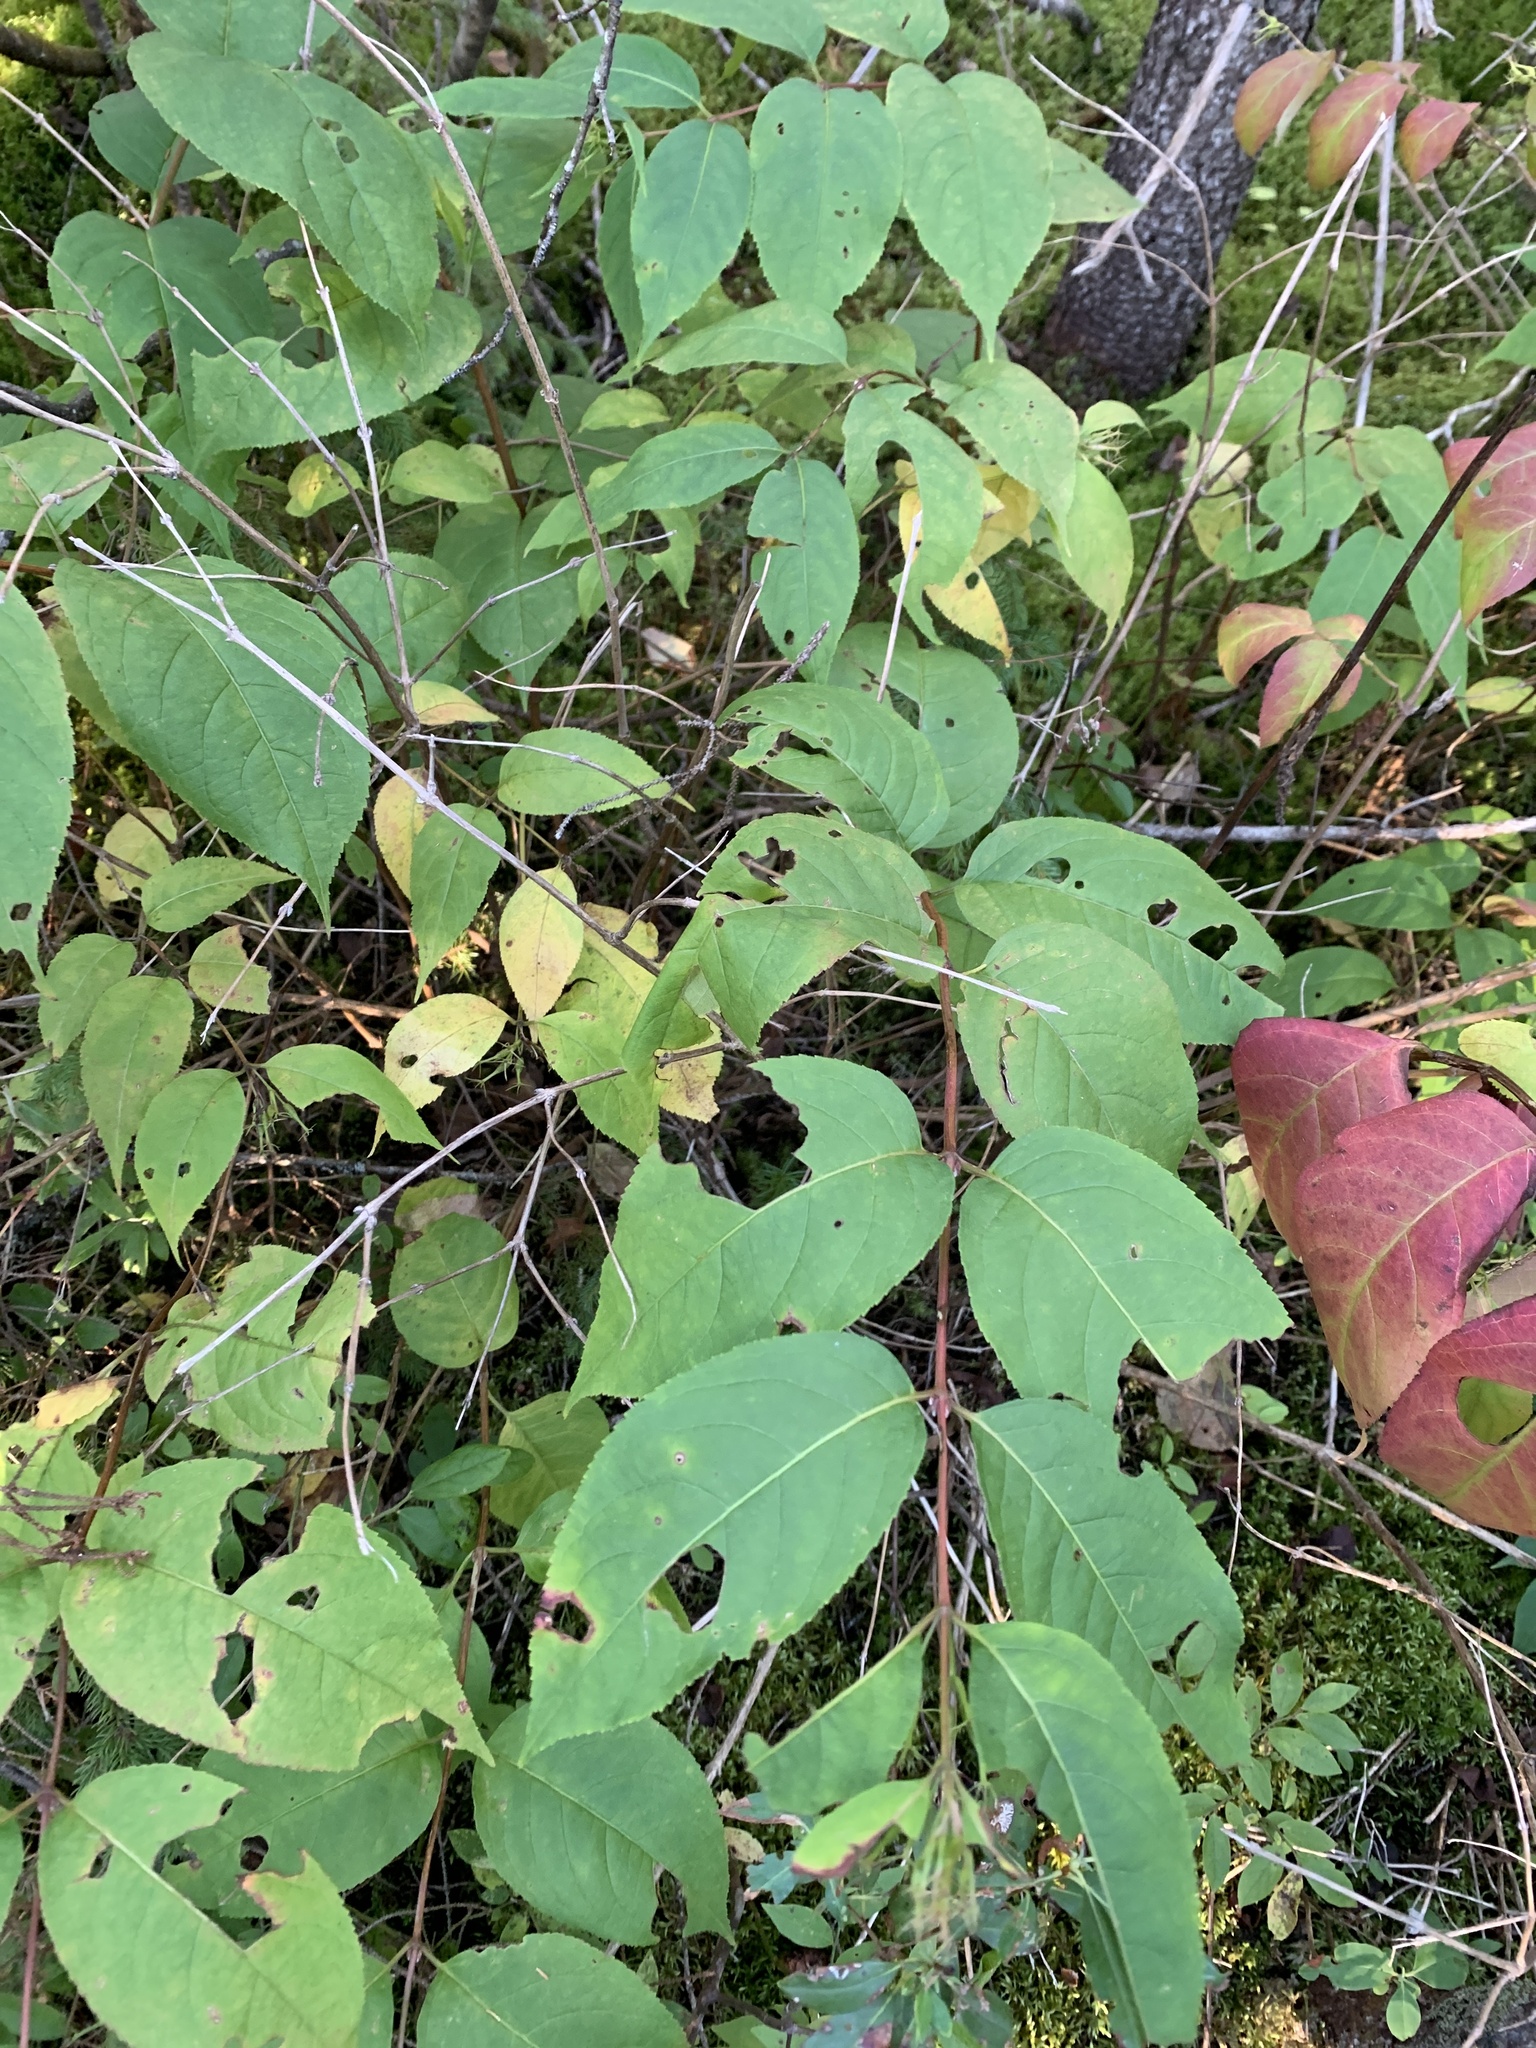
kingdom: Plantae
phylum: Tracheophyta
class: Magnoliopsida
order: Dipsacales
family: Caprifoliaceae
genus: Diervilla
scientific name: Diervilla lonicera
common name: Bush-honeysuckle
